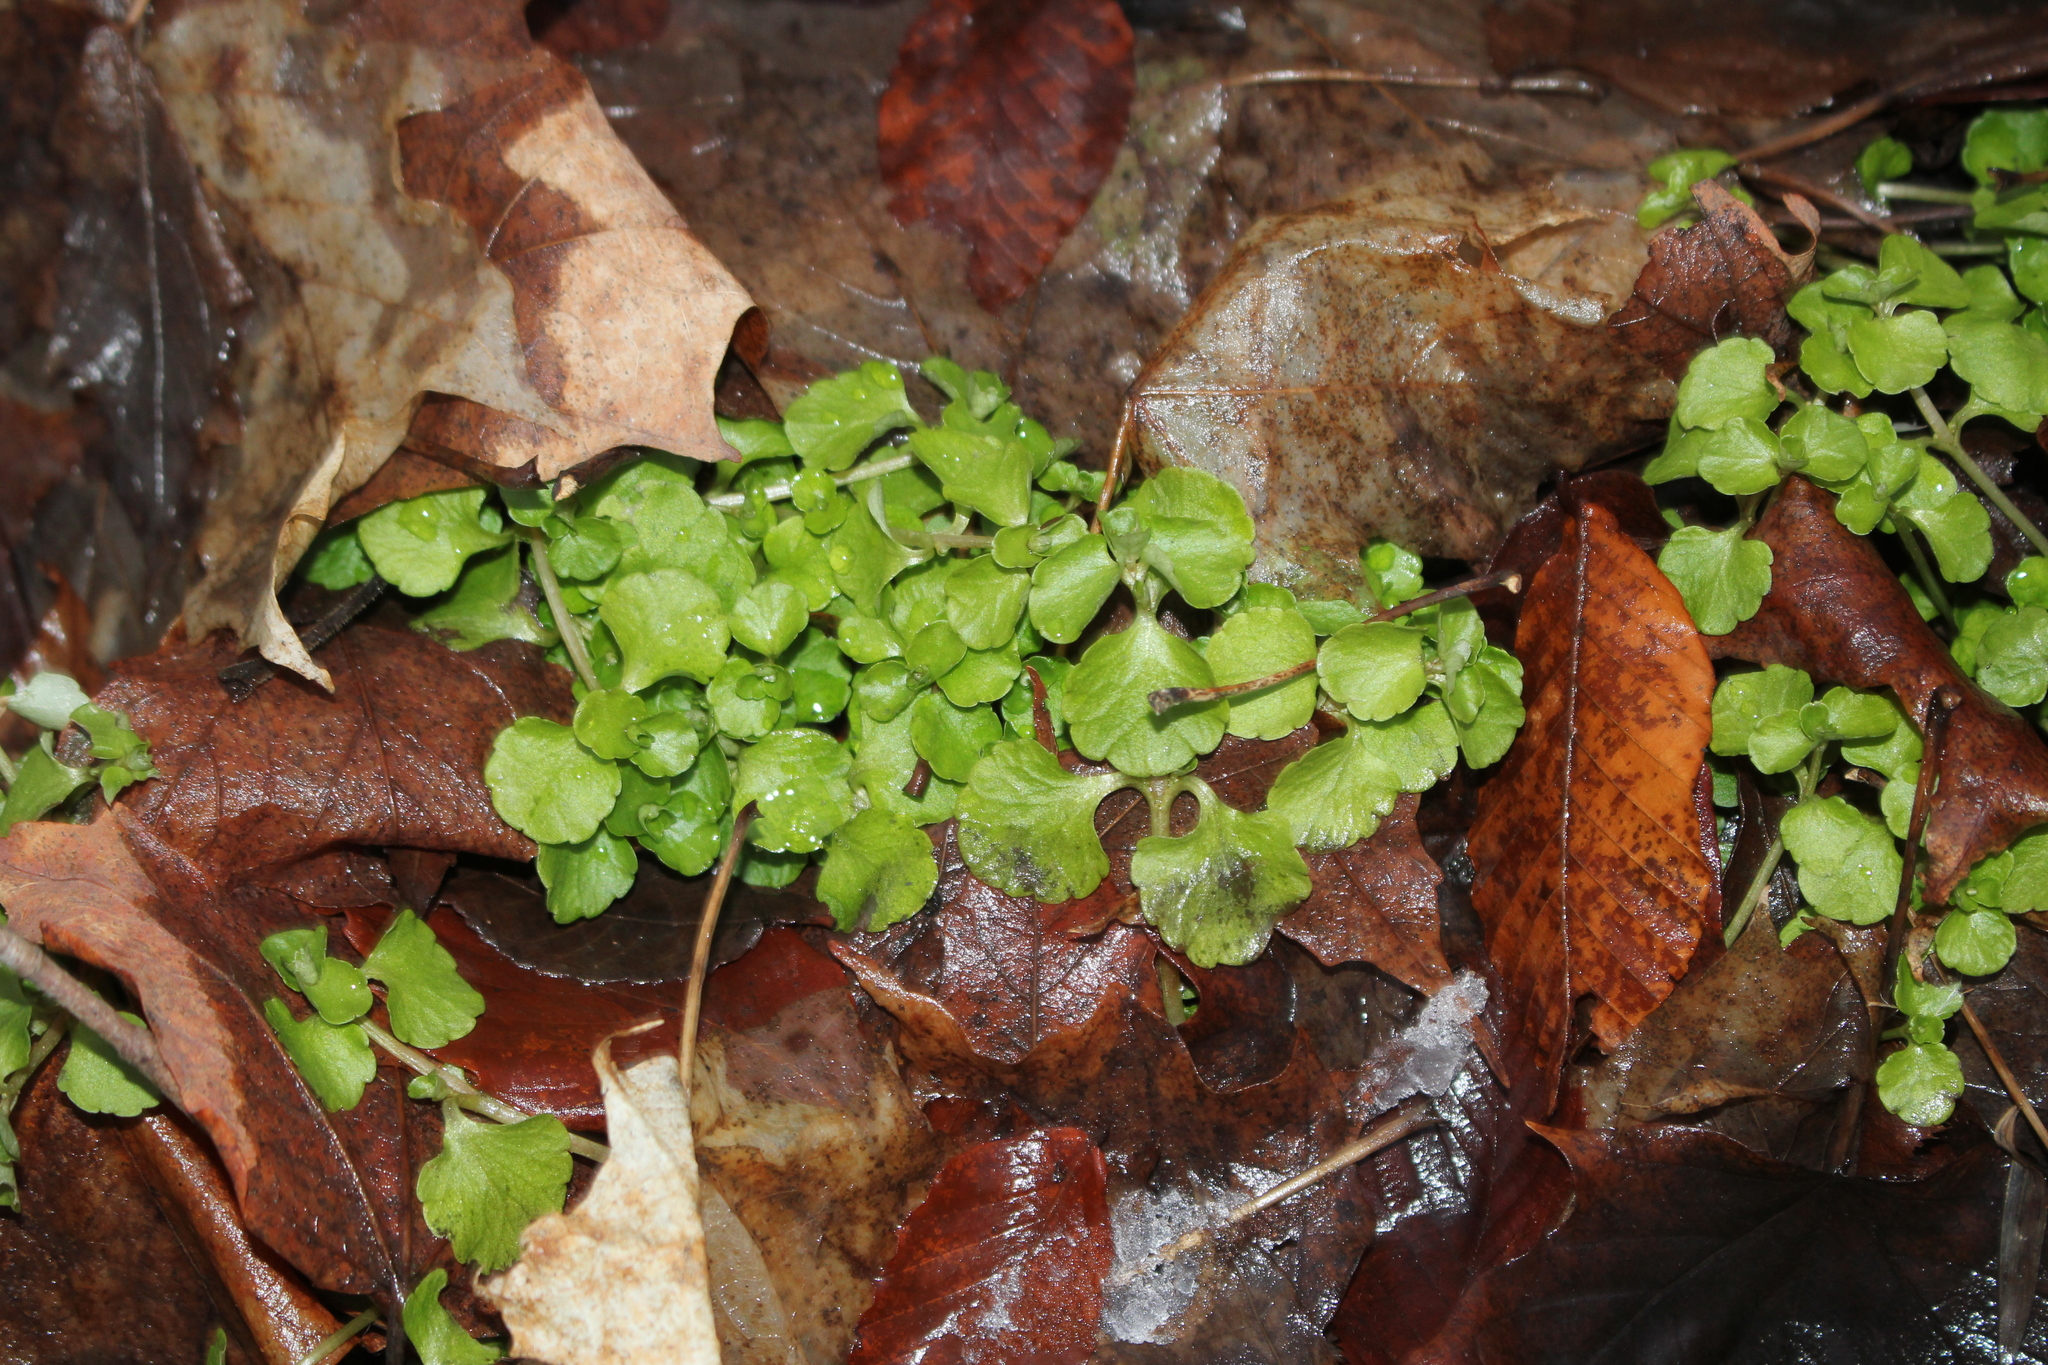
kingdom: Plantae
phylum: Tracheophyta
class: Magnoliopsida
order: Saxifragales
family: Saxifragaceae
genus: Chrysosplenium
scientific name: Chrysosplenium americanum
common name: American golden-saxifrage
